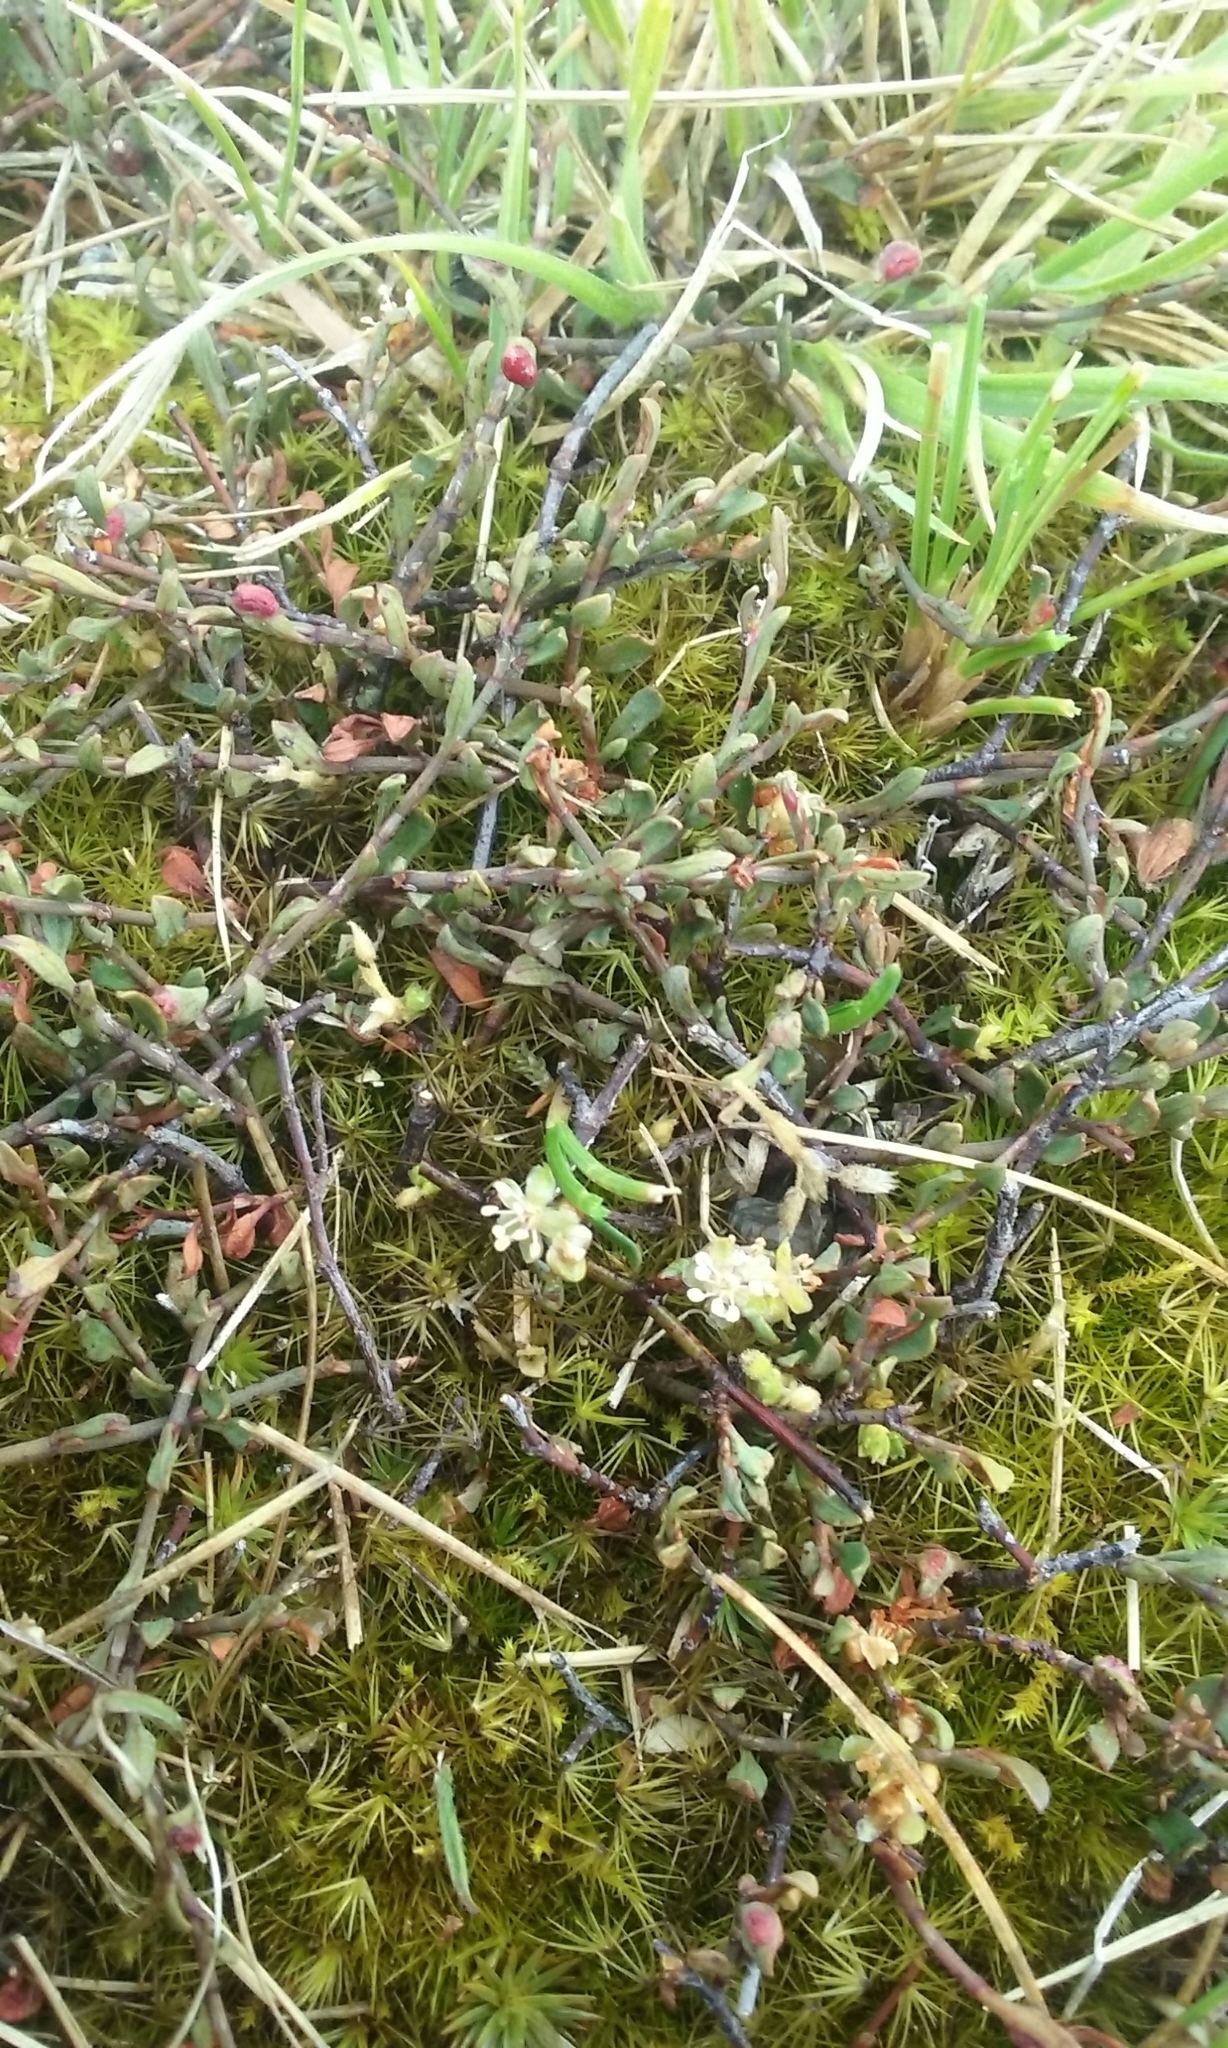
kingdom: Plantae
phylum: Tracheophyta
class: Magnoliopsida
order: Caryophyllales
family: Polygonaceae
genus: Muehlenbeckia
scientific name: Muehlenbeckia
